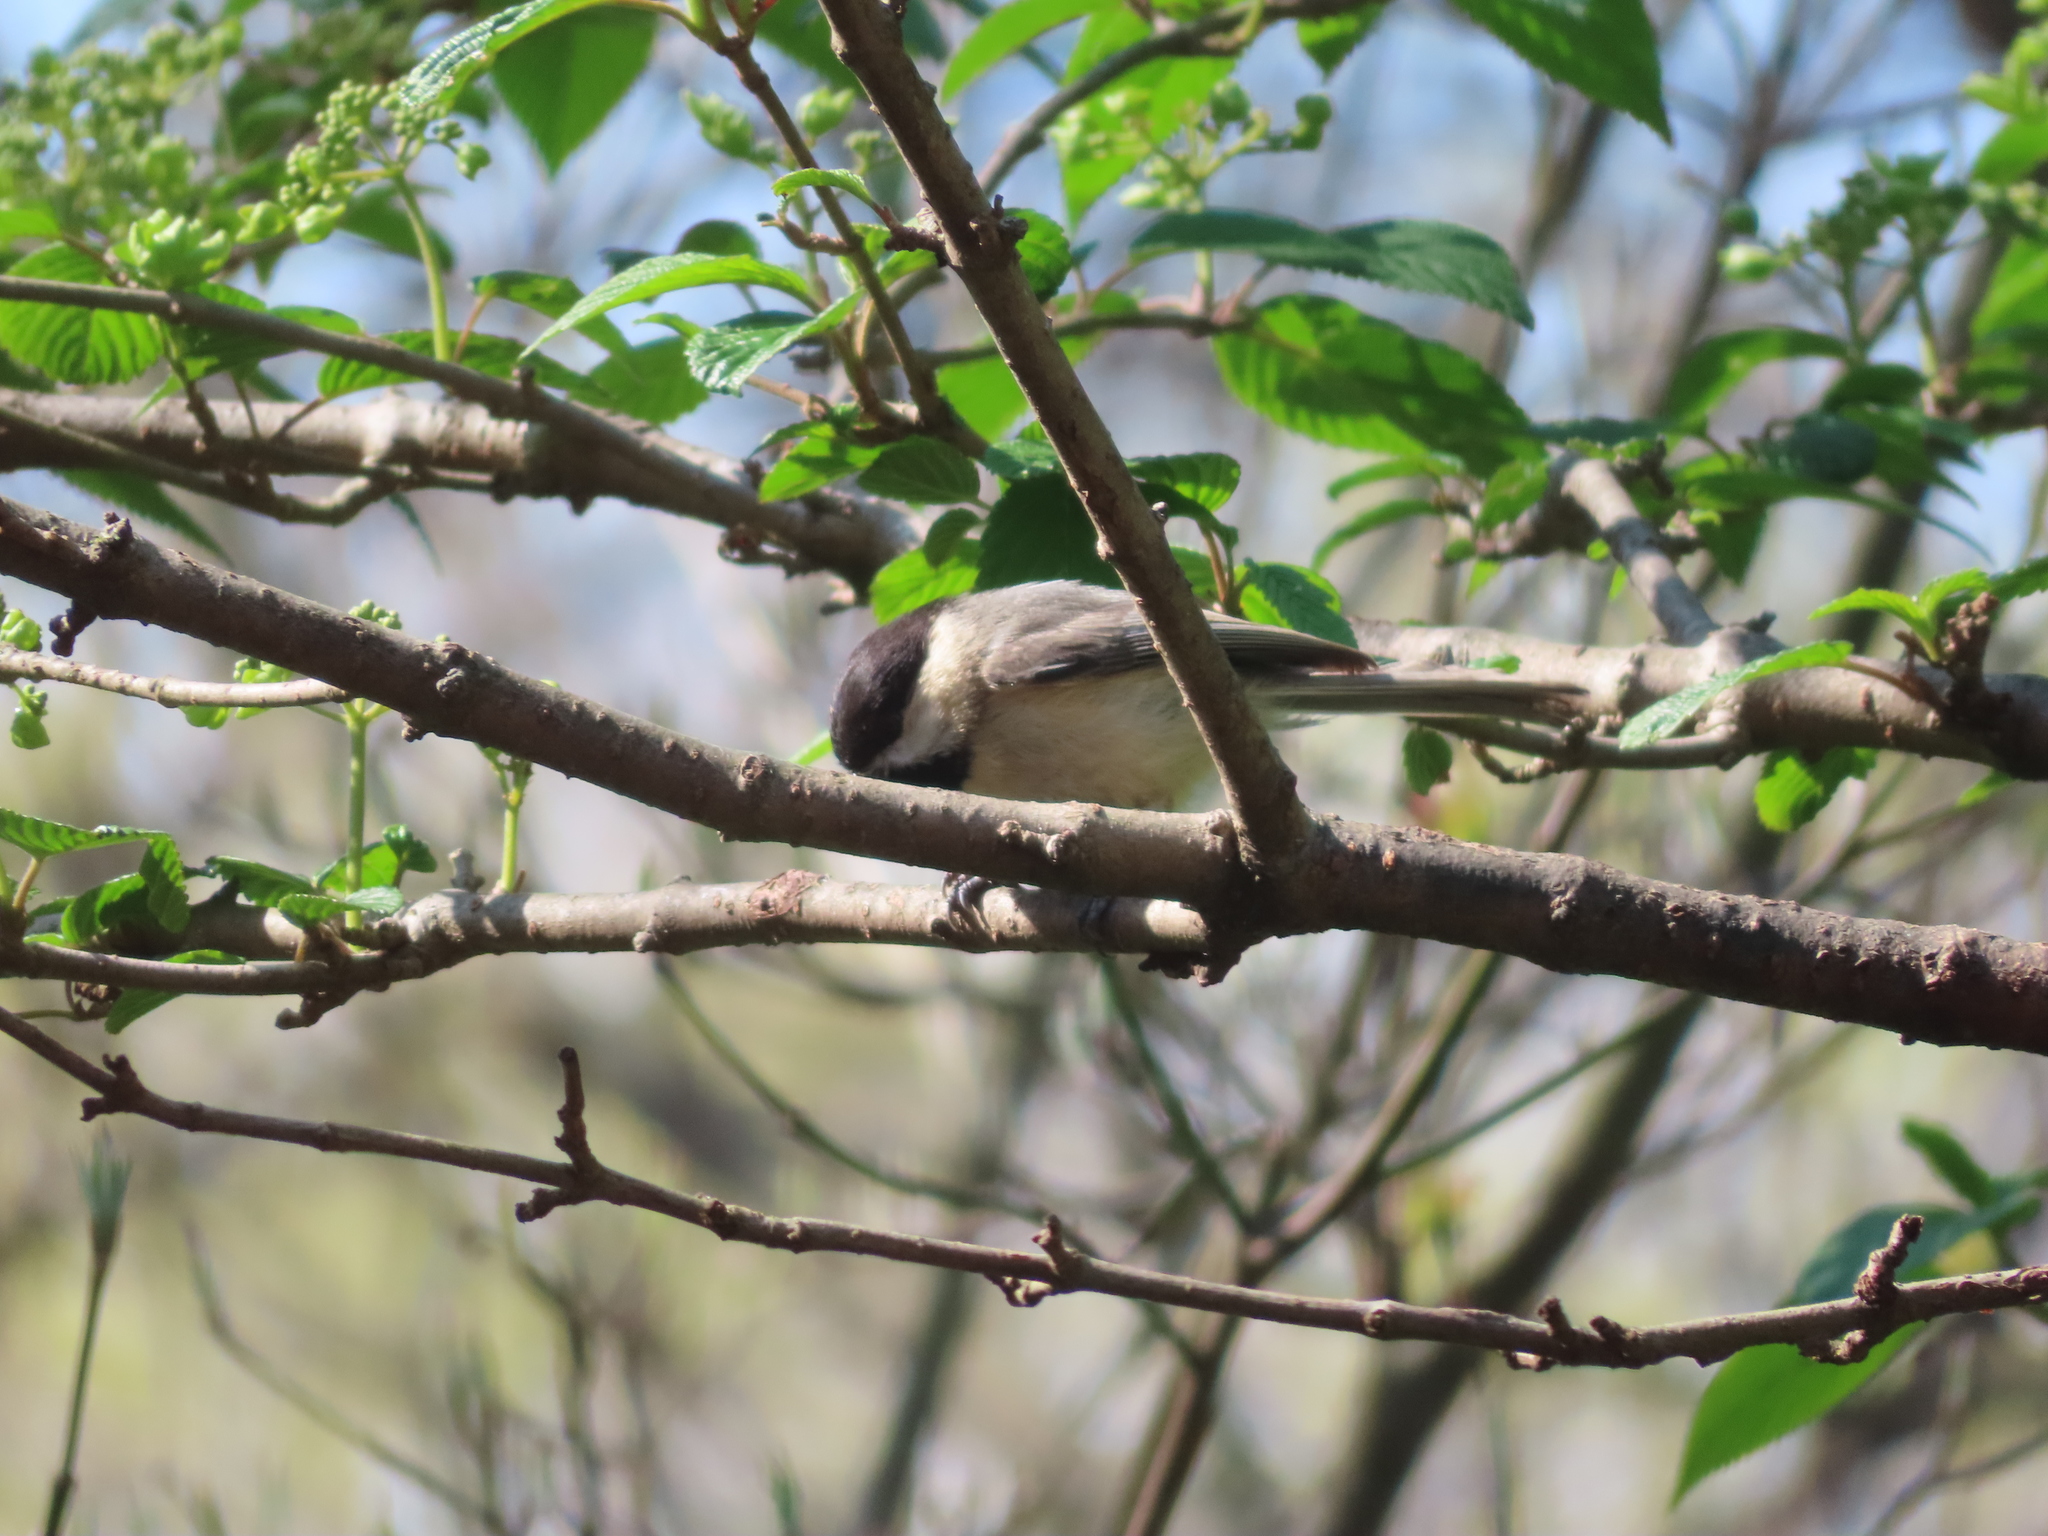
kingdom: Animalia
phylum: Chordata
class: Aves
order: Passeriformes
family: Paridae
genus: Poecile
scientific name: Poecile carolinensis
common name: Carolina chickadee
